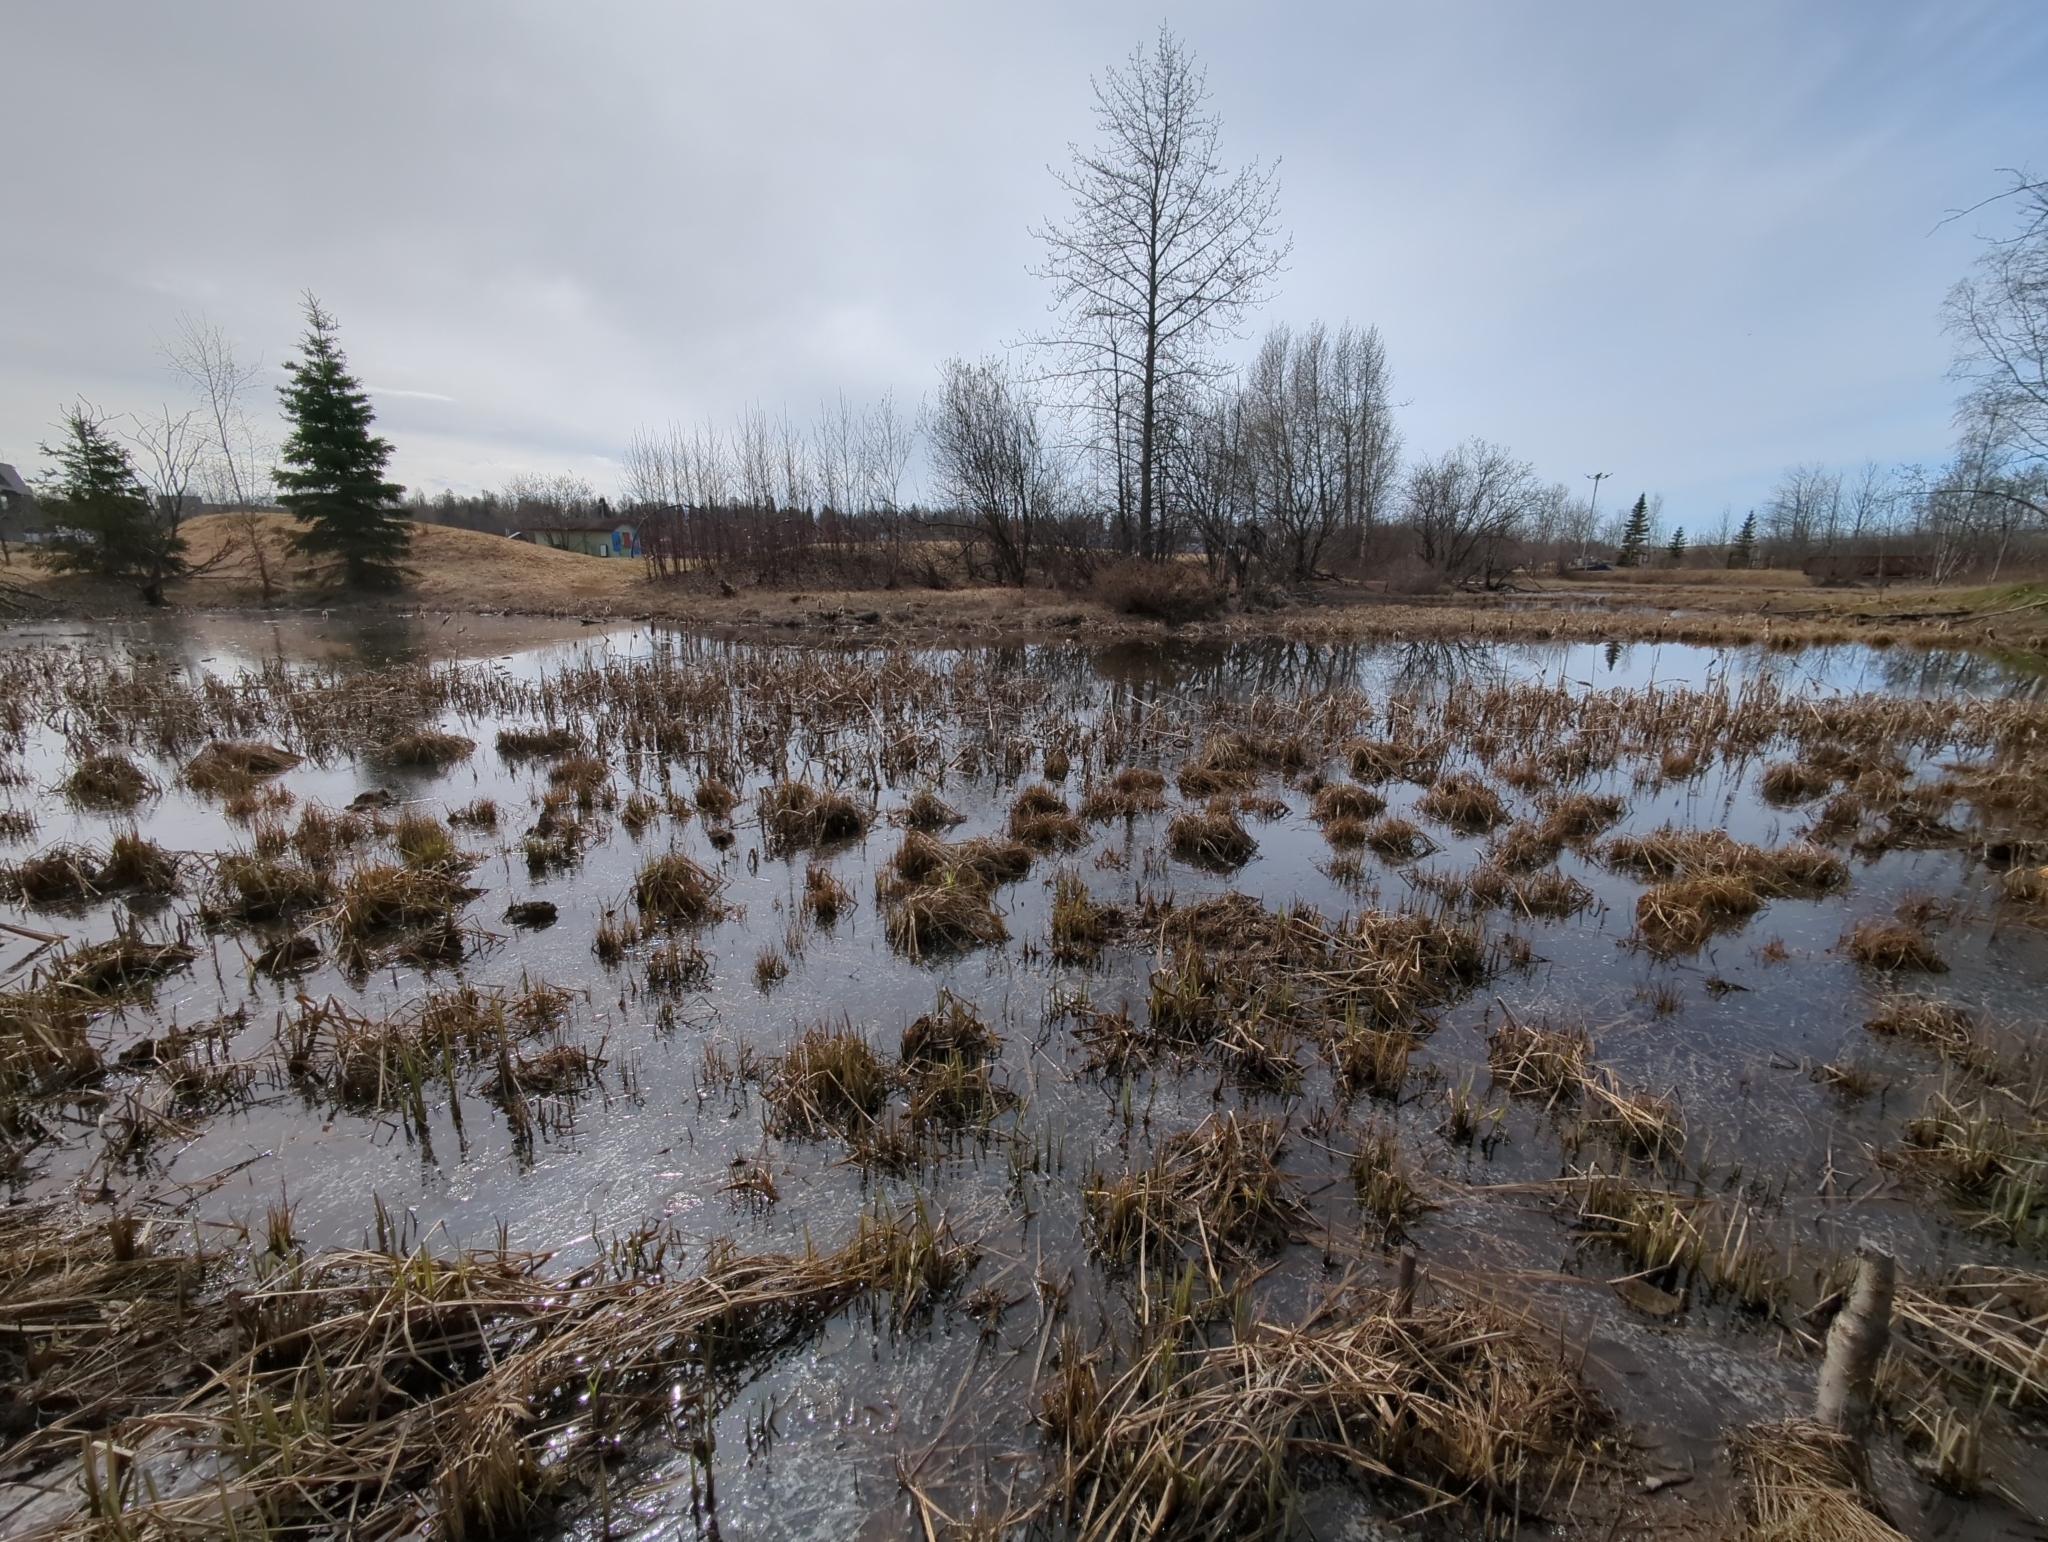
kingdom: Animalia
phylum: Chordata
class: Amphibia
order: Anura
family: Ranidae
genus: Lithobates
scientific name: Lithobates sylvaticus
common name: Wood frog
